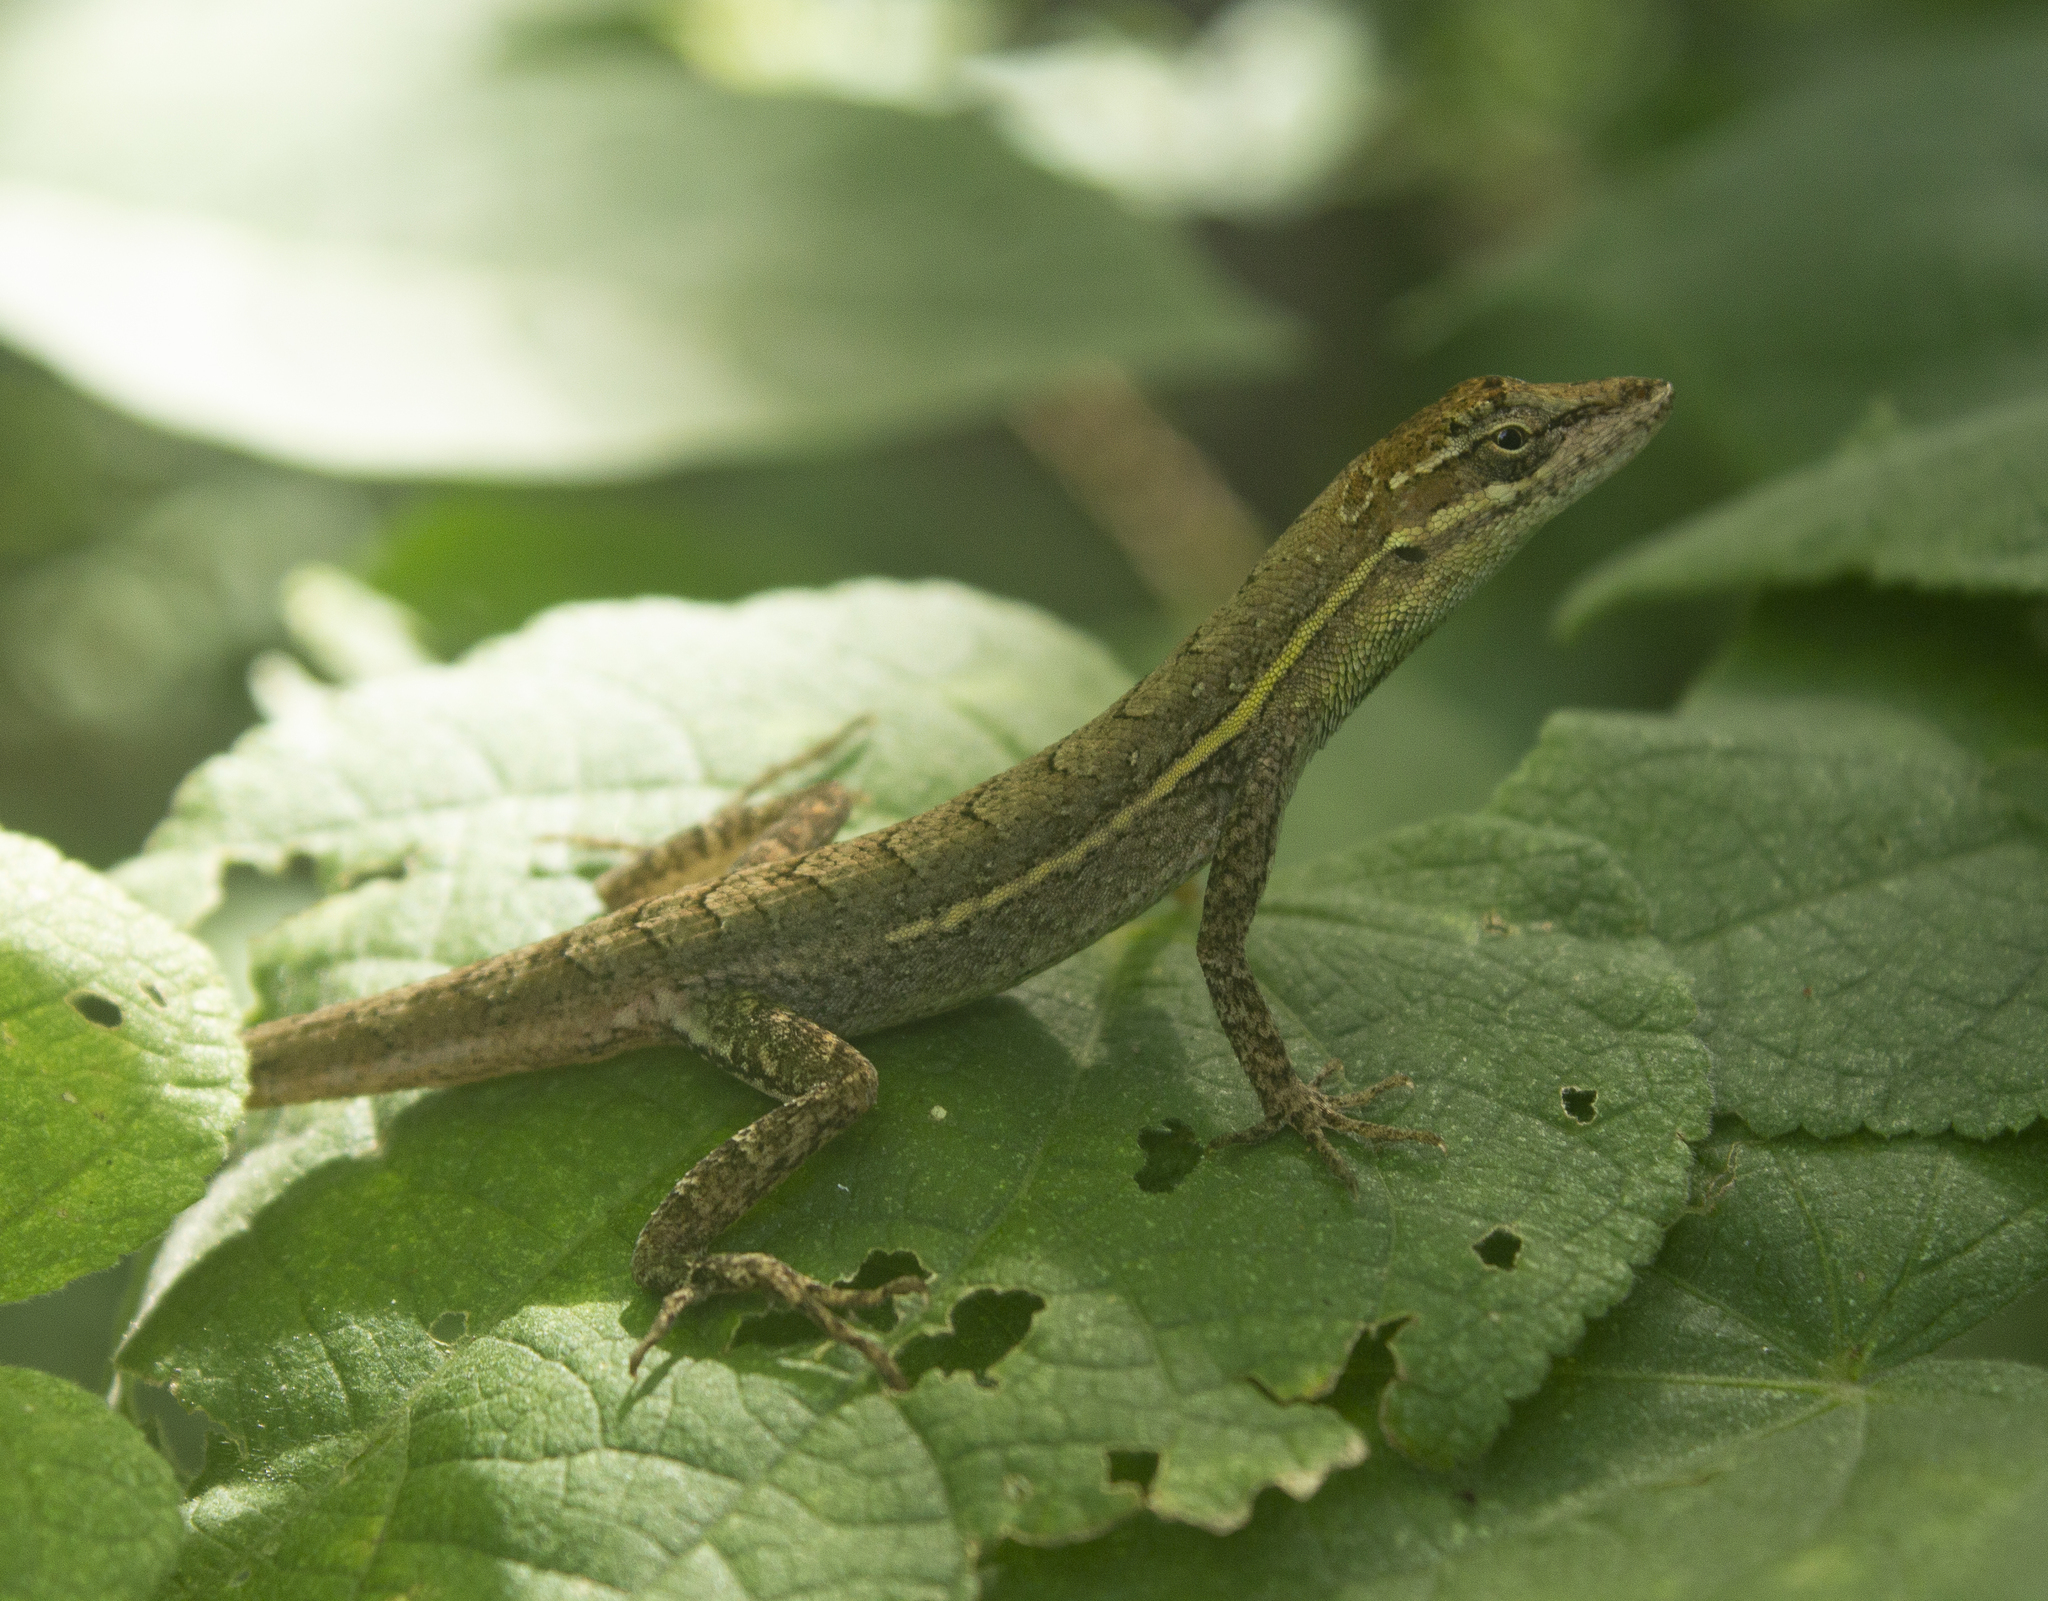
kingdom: Animalia
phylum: Chordata
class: Squamata
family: Dactyloidae
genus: Anolis
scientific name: Anolis auratus
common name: Grass anole
